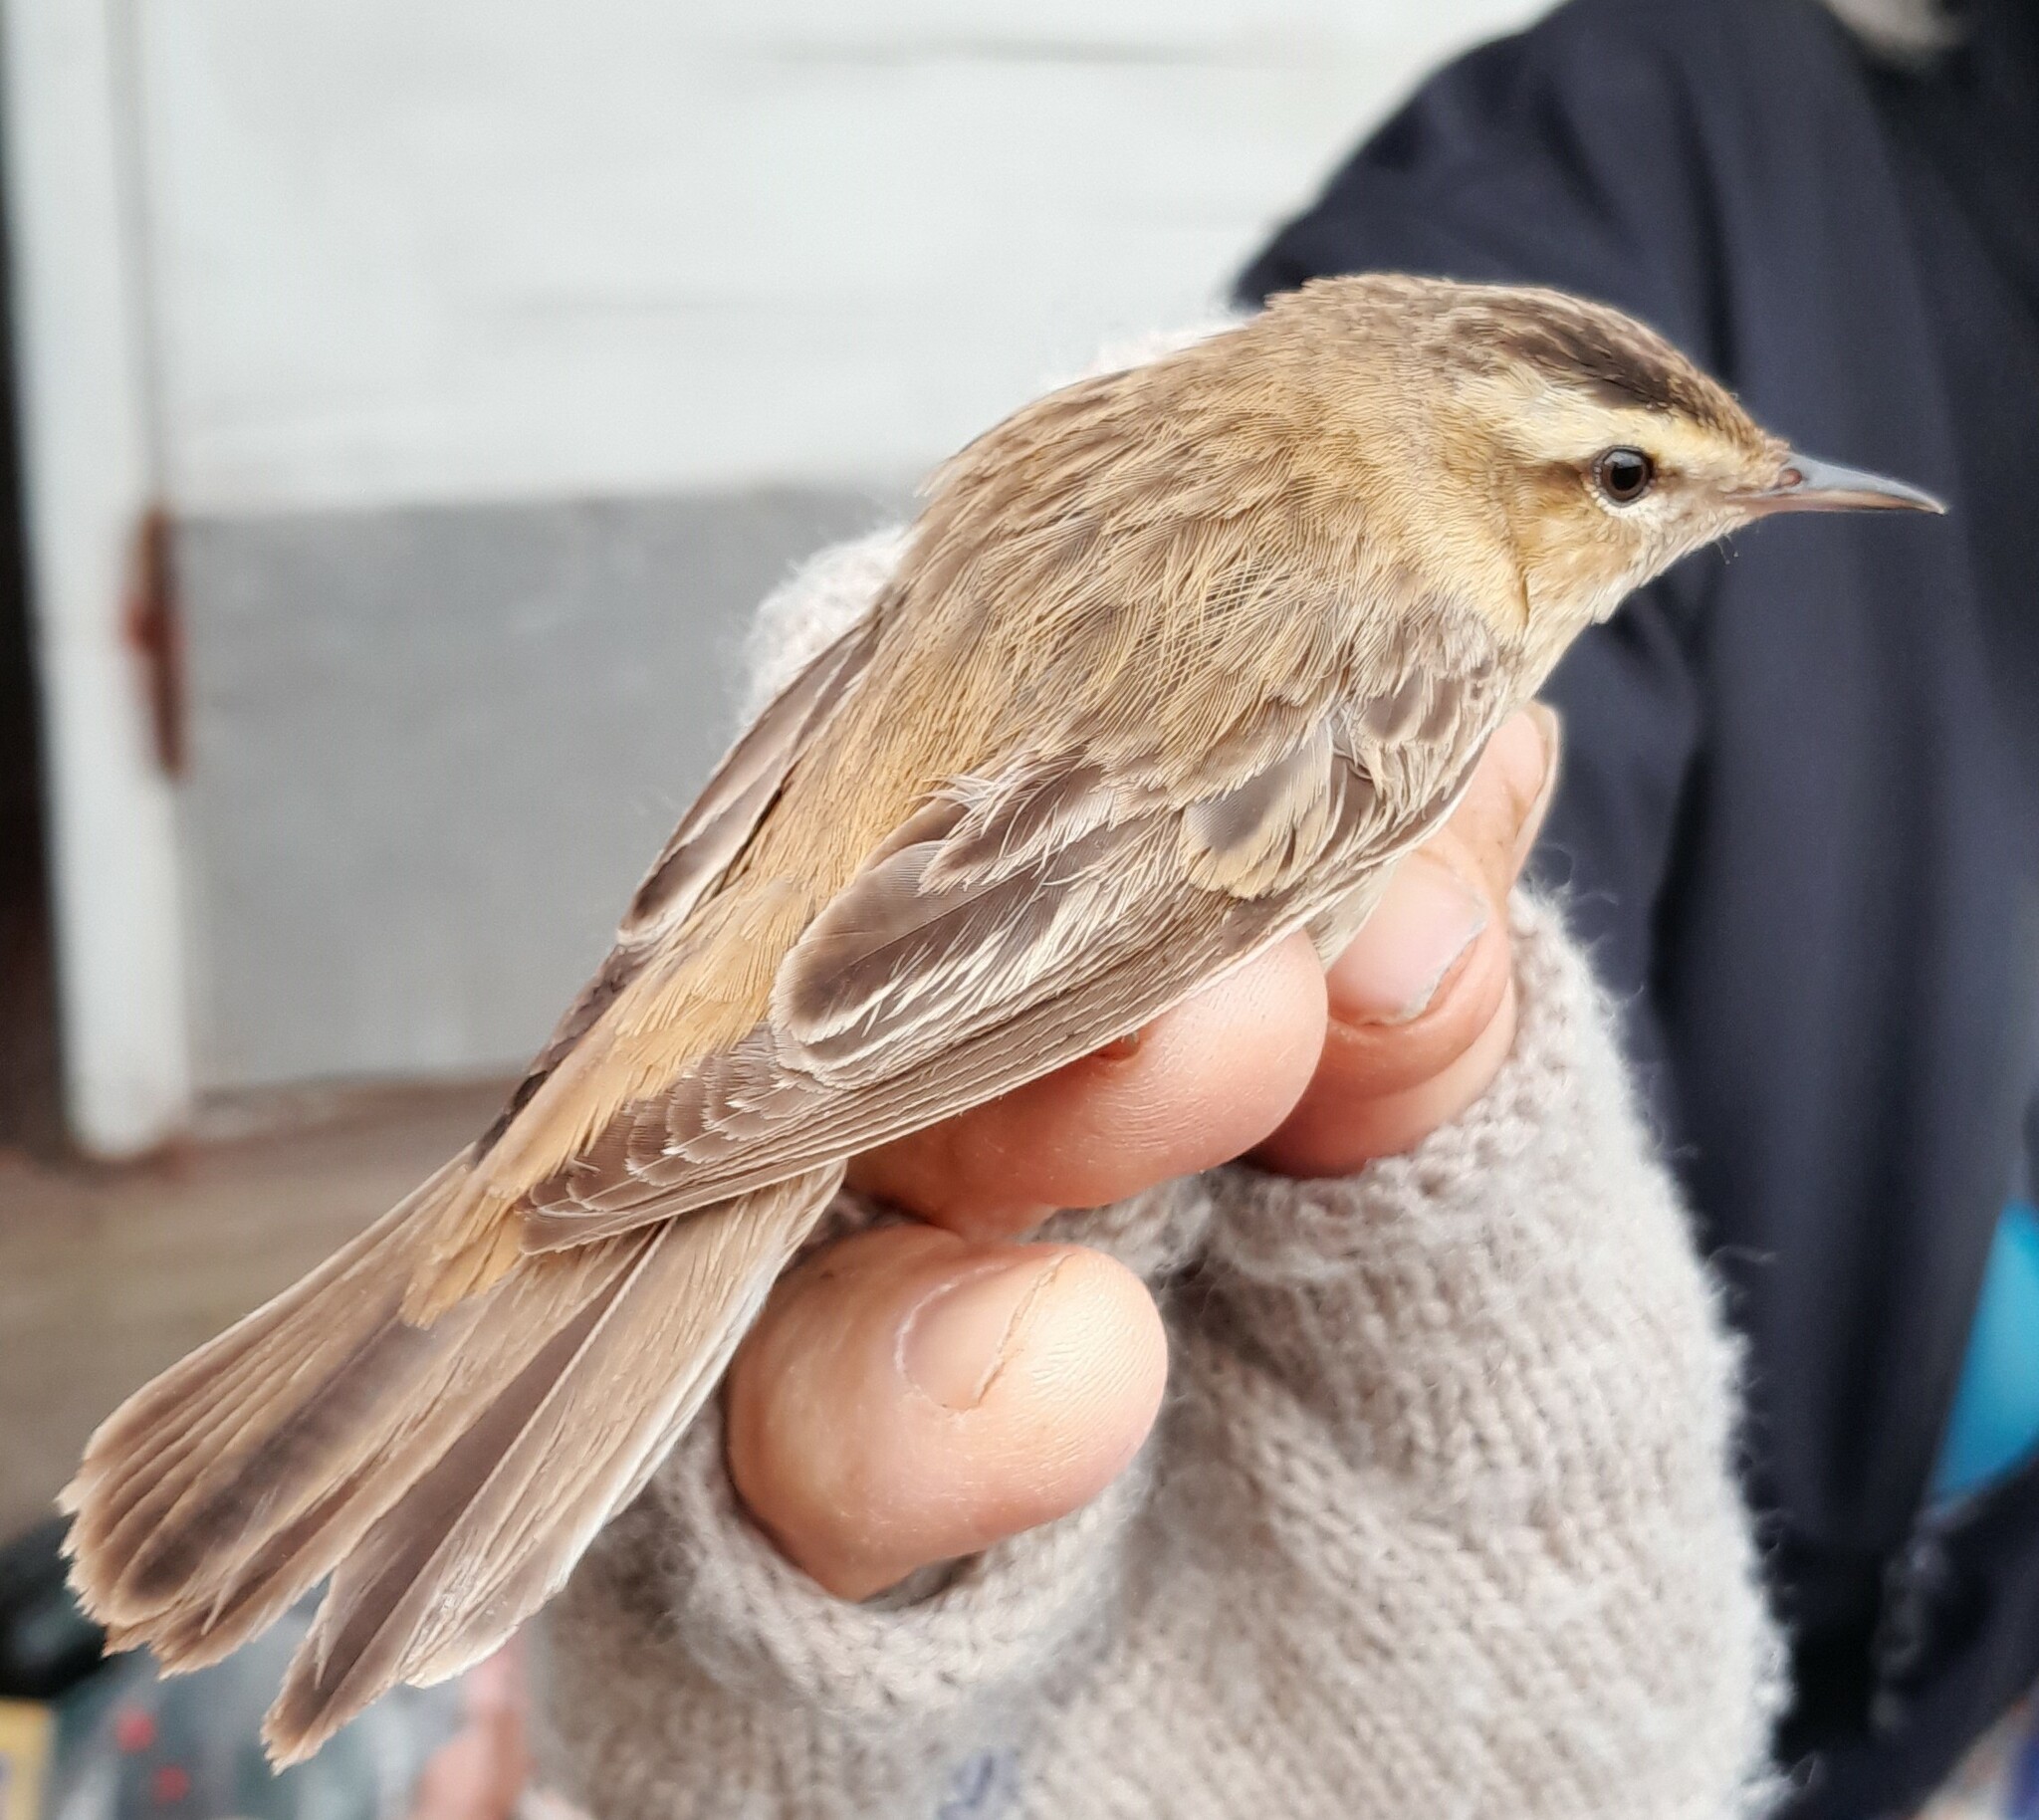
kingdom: Animalia
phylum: Chordata
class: Aves
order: Passeriformes
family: Acrocephalidae
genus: Acrocephalus
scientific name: Acrocephalus schoenobaenus
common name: Sedge warbler
